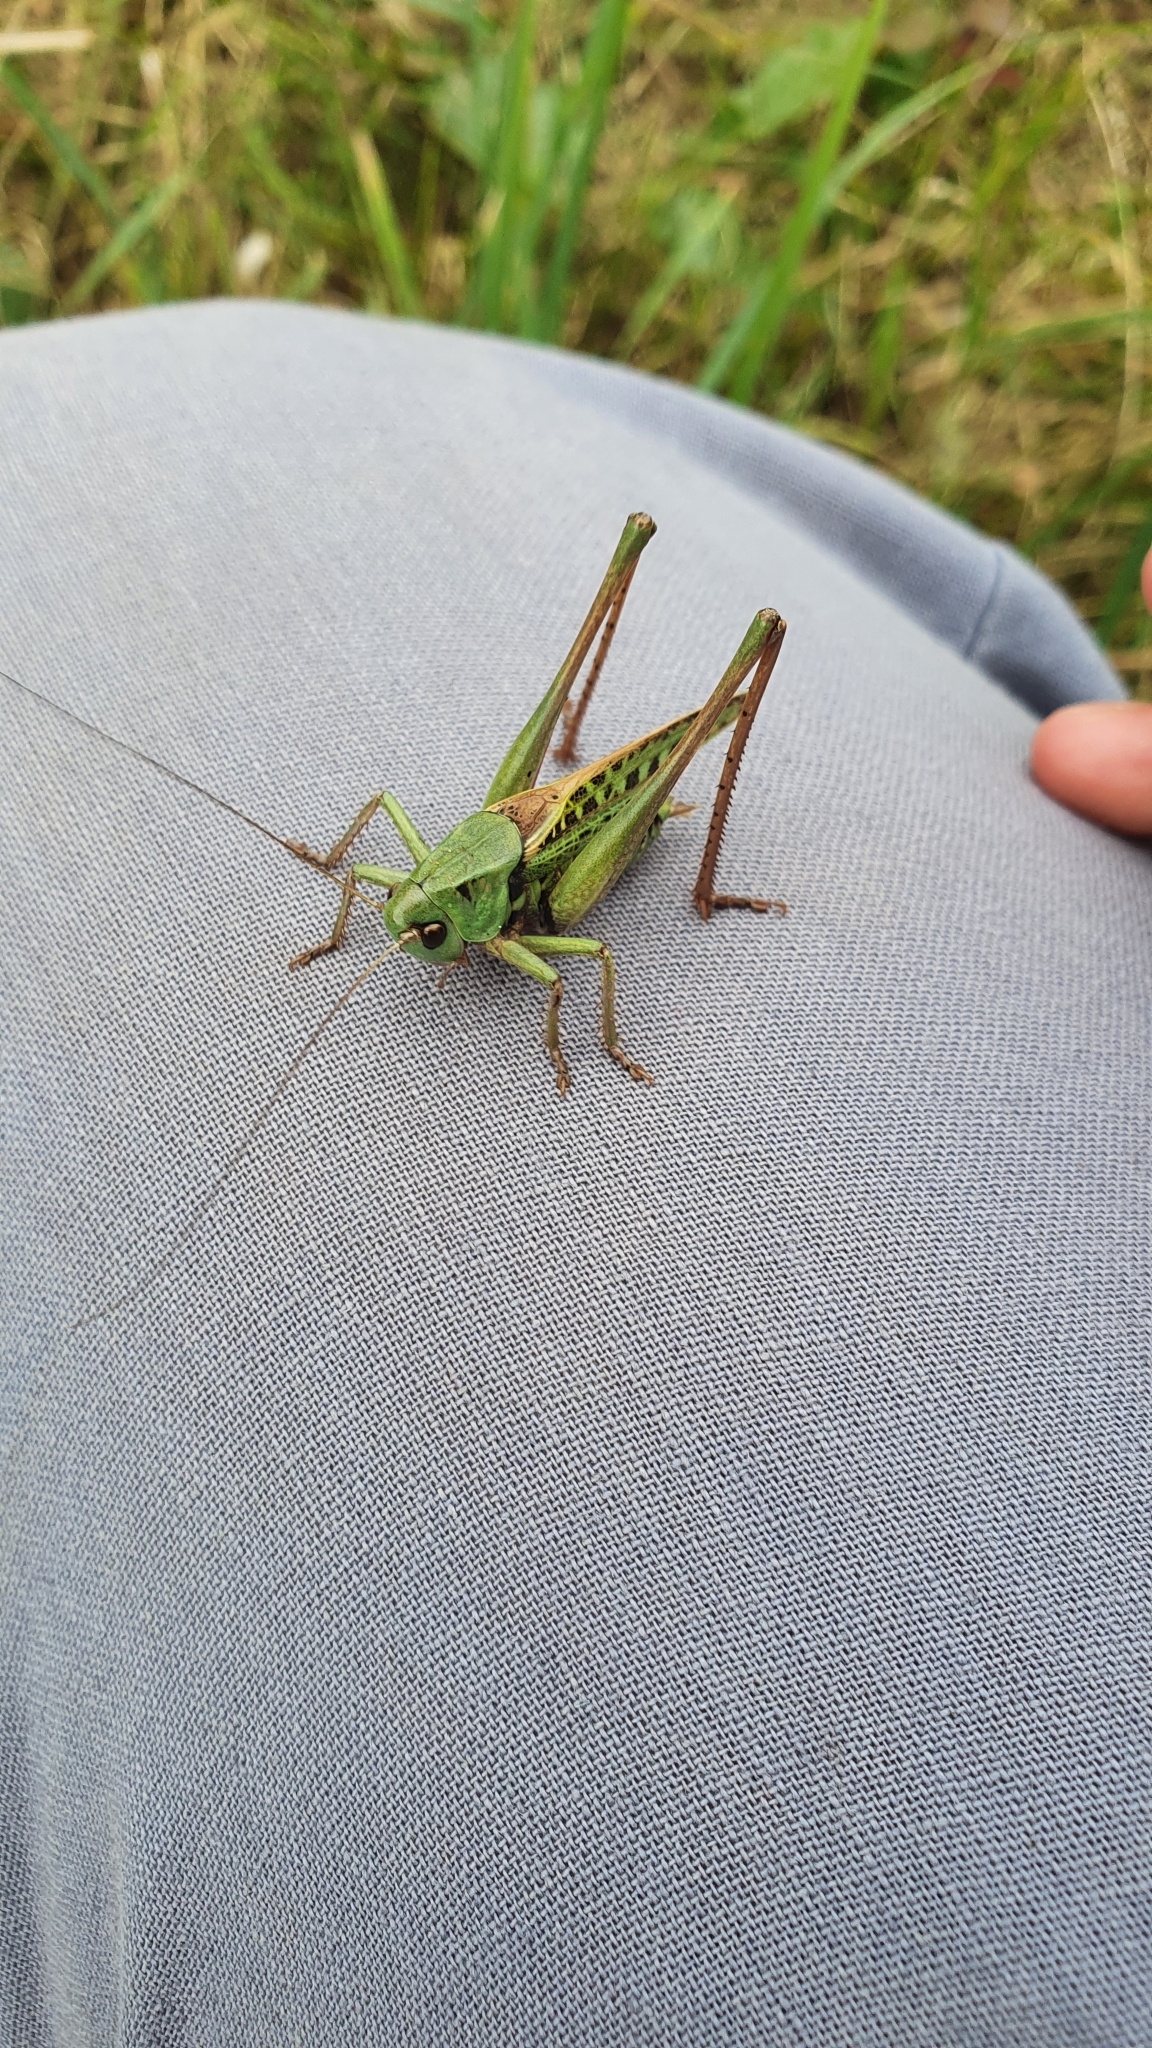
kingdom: Animalia
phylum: Arthropoda
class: Insecta
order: Orthoptera
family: Tettigoniidae
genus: Decticus
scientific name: Decticus verrucivorus
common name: Wart-biter
